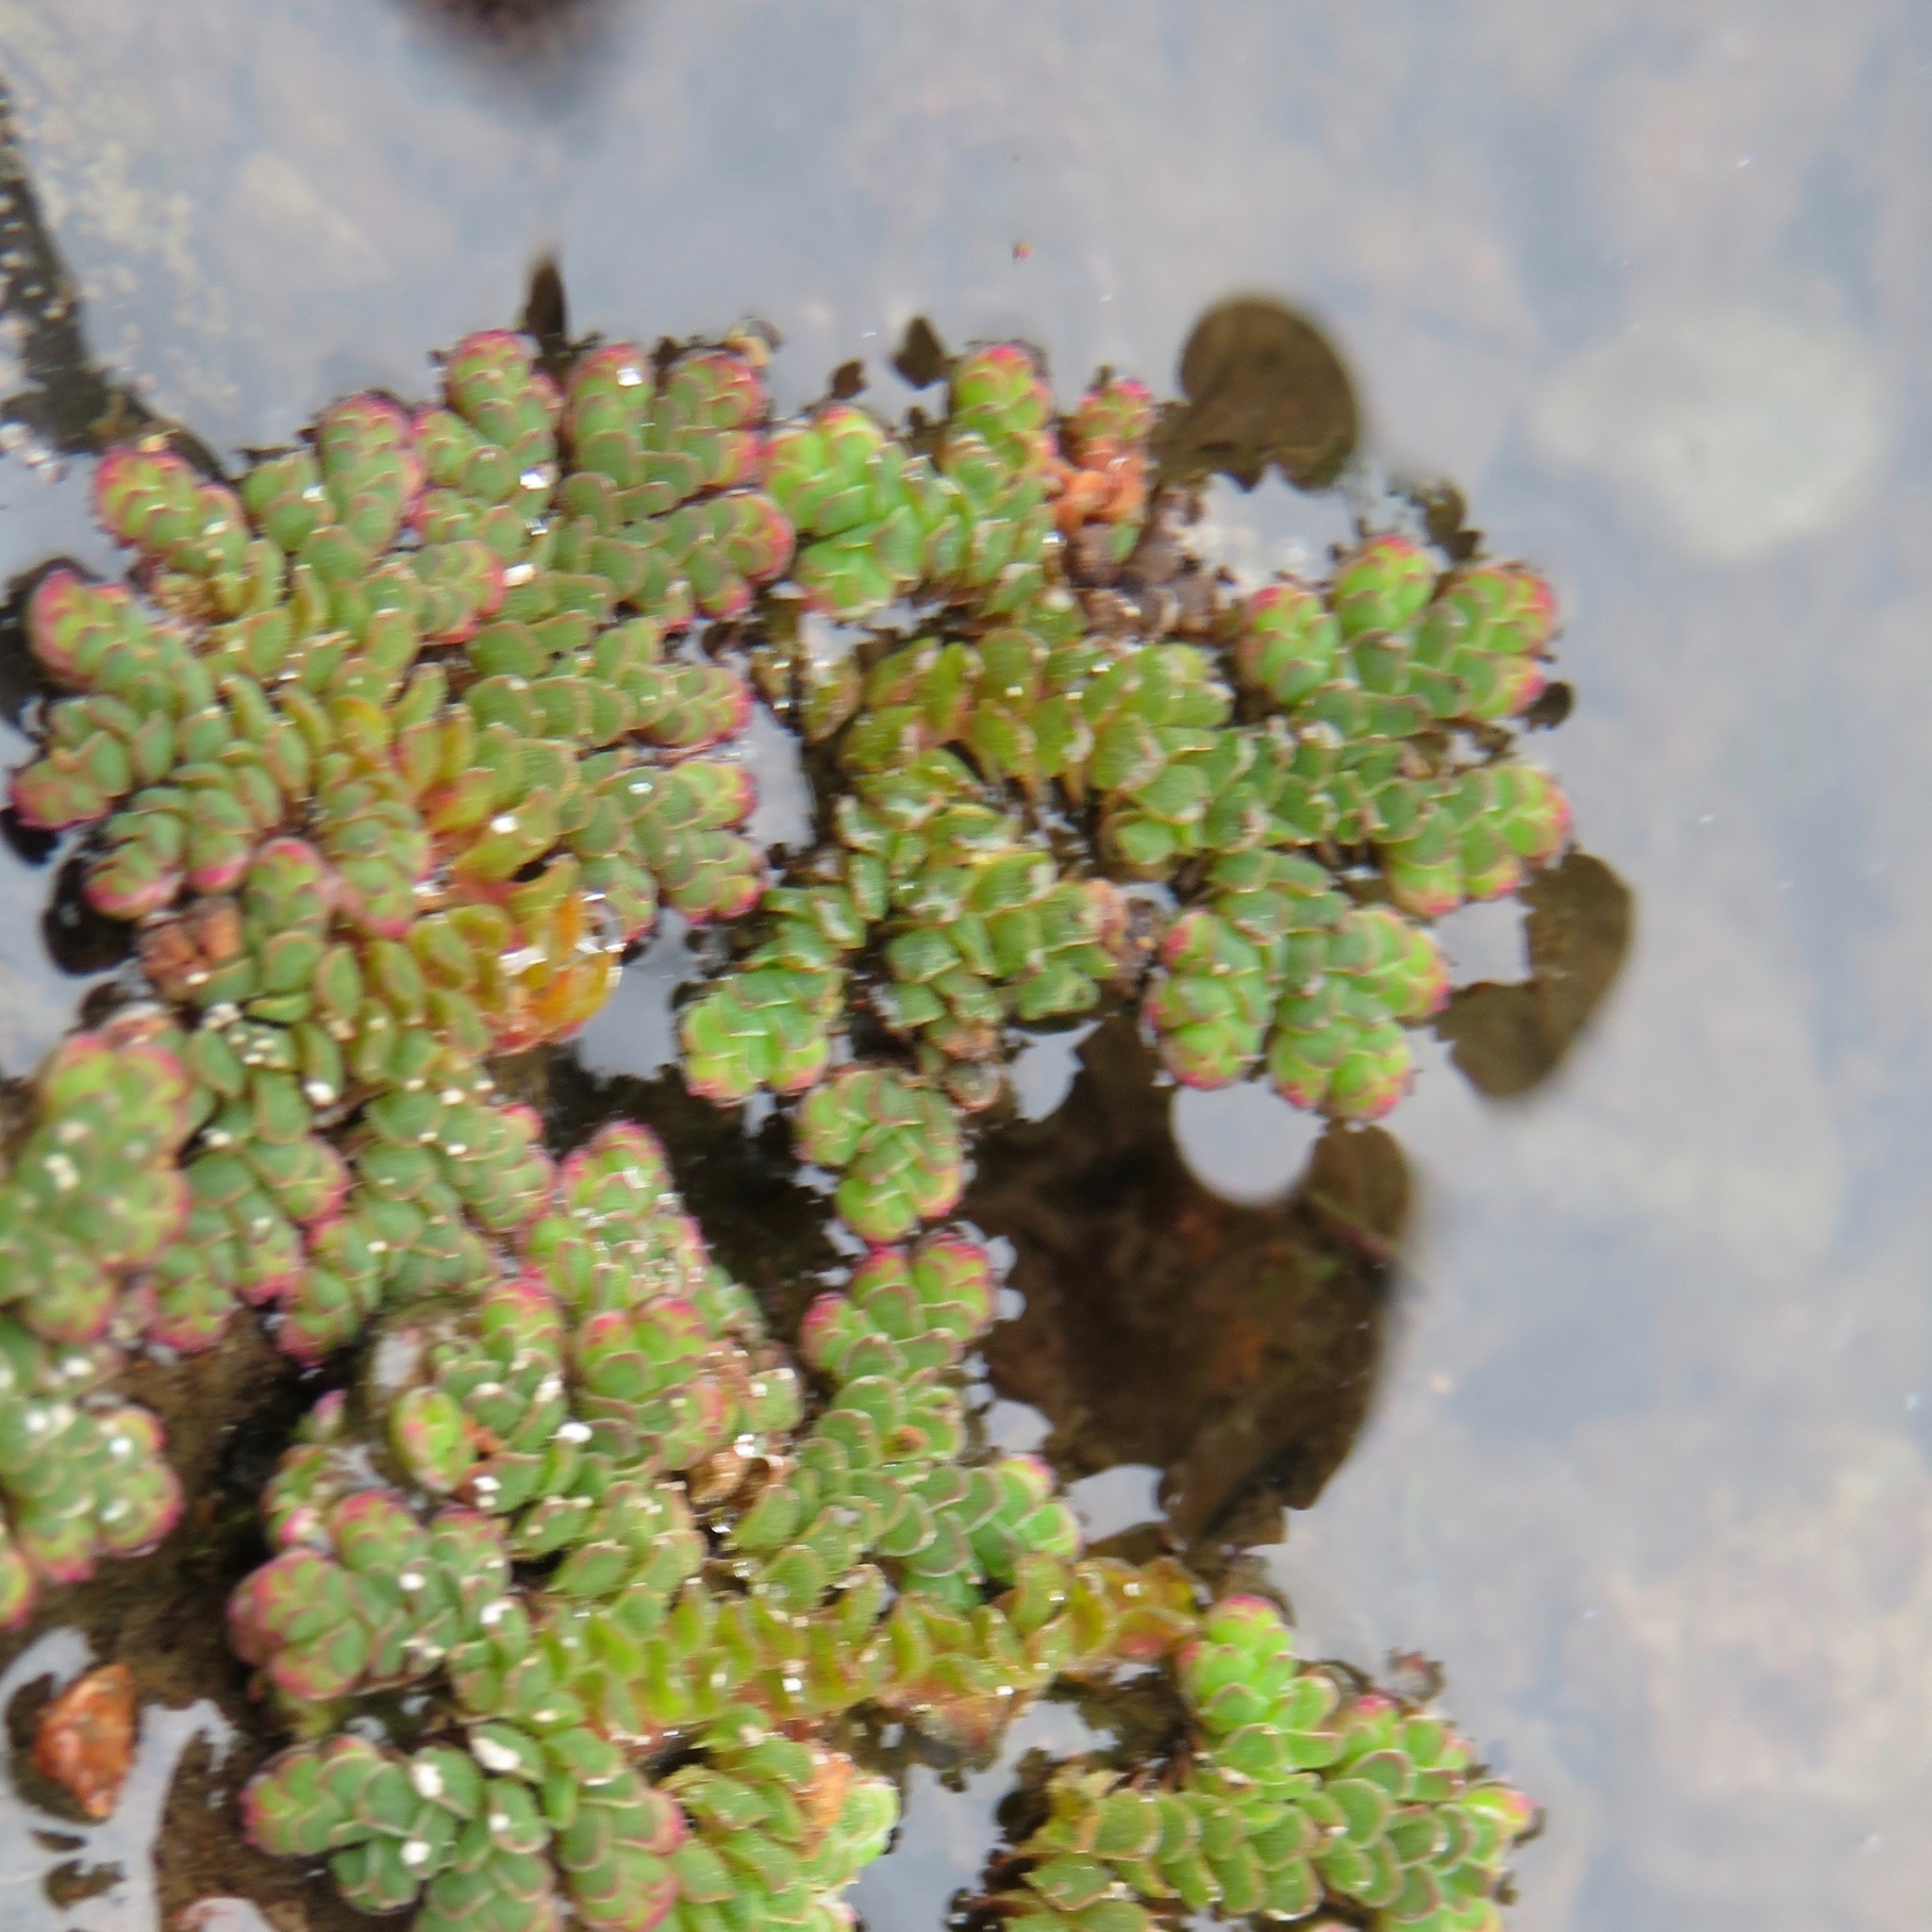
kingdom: Plantae
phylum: Tracheophyta
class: Polypodiopsida
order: Salviniales
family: Salviniaceae
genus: Azolla
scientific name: Azolla filiculoides
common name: Water fern
